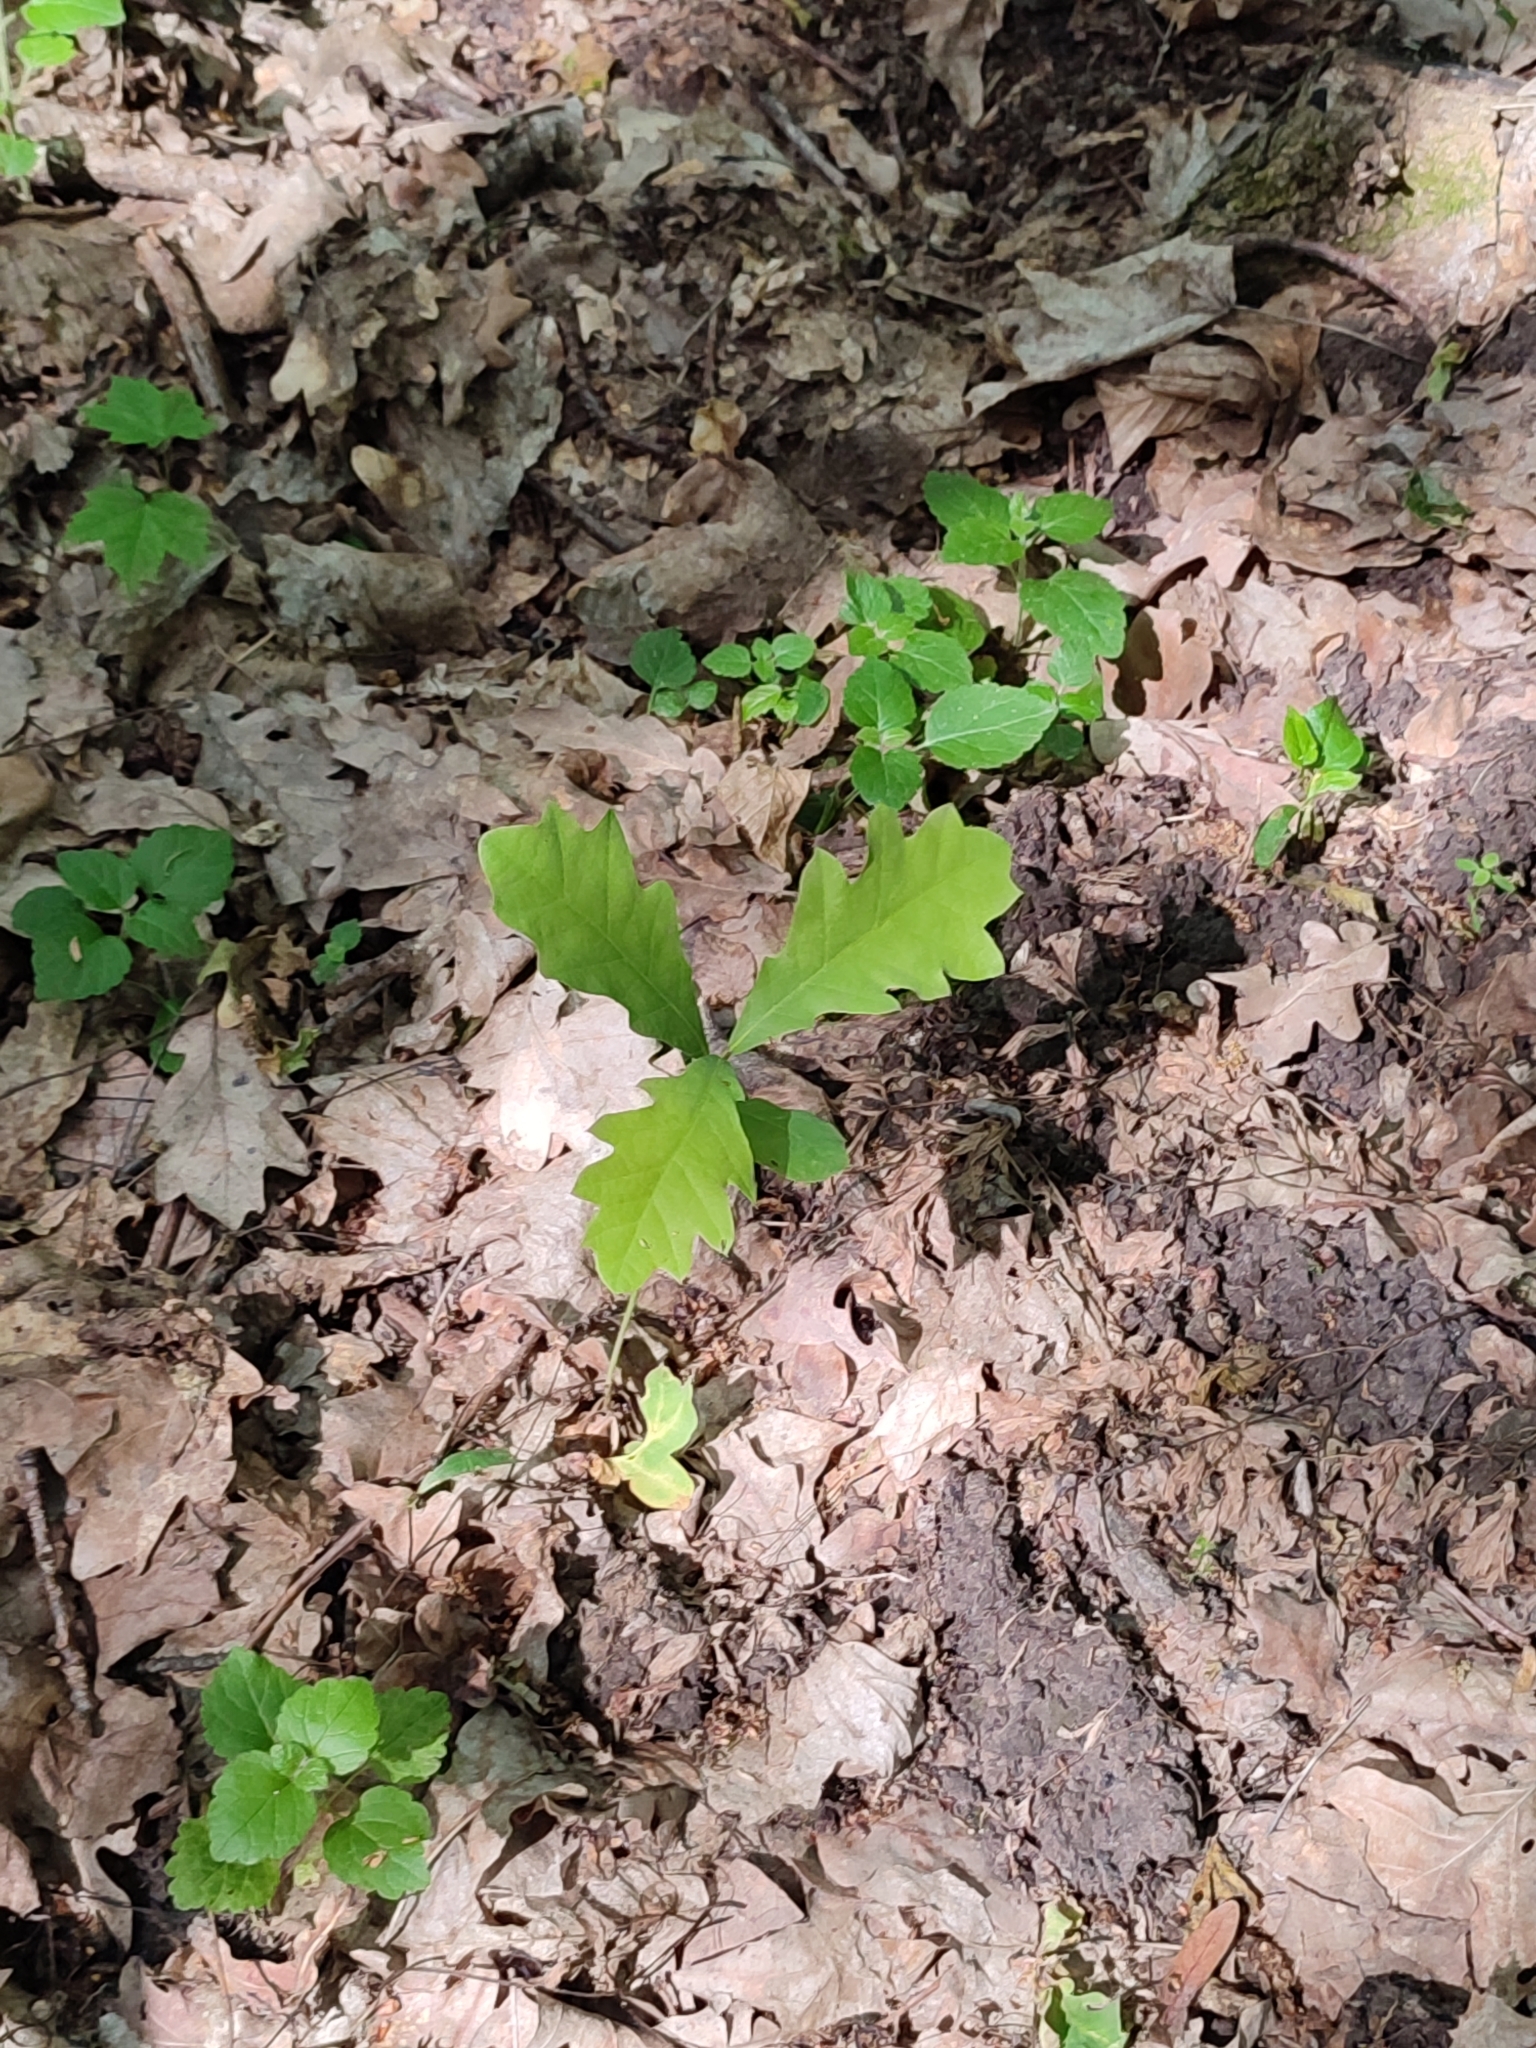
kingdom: Plantae
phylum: Tracheophyta
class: Magnoliopsida
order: Fagales
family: Fagaceae
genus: Quercus
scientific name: Quercus robur
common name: Pedunculate oak
